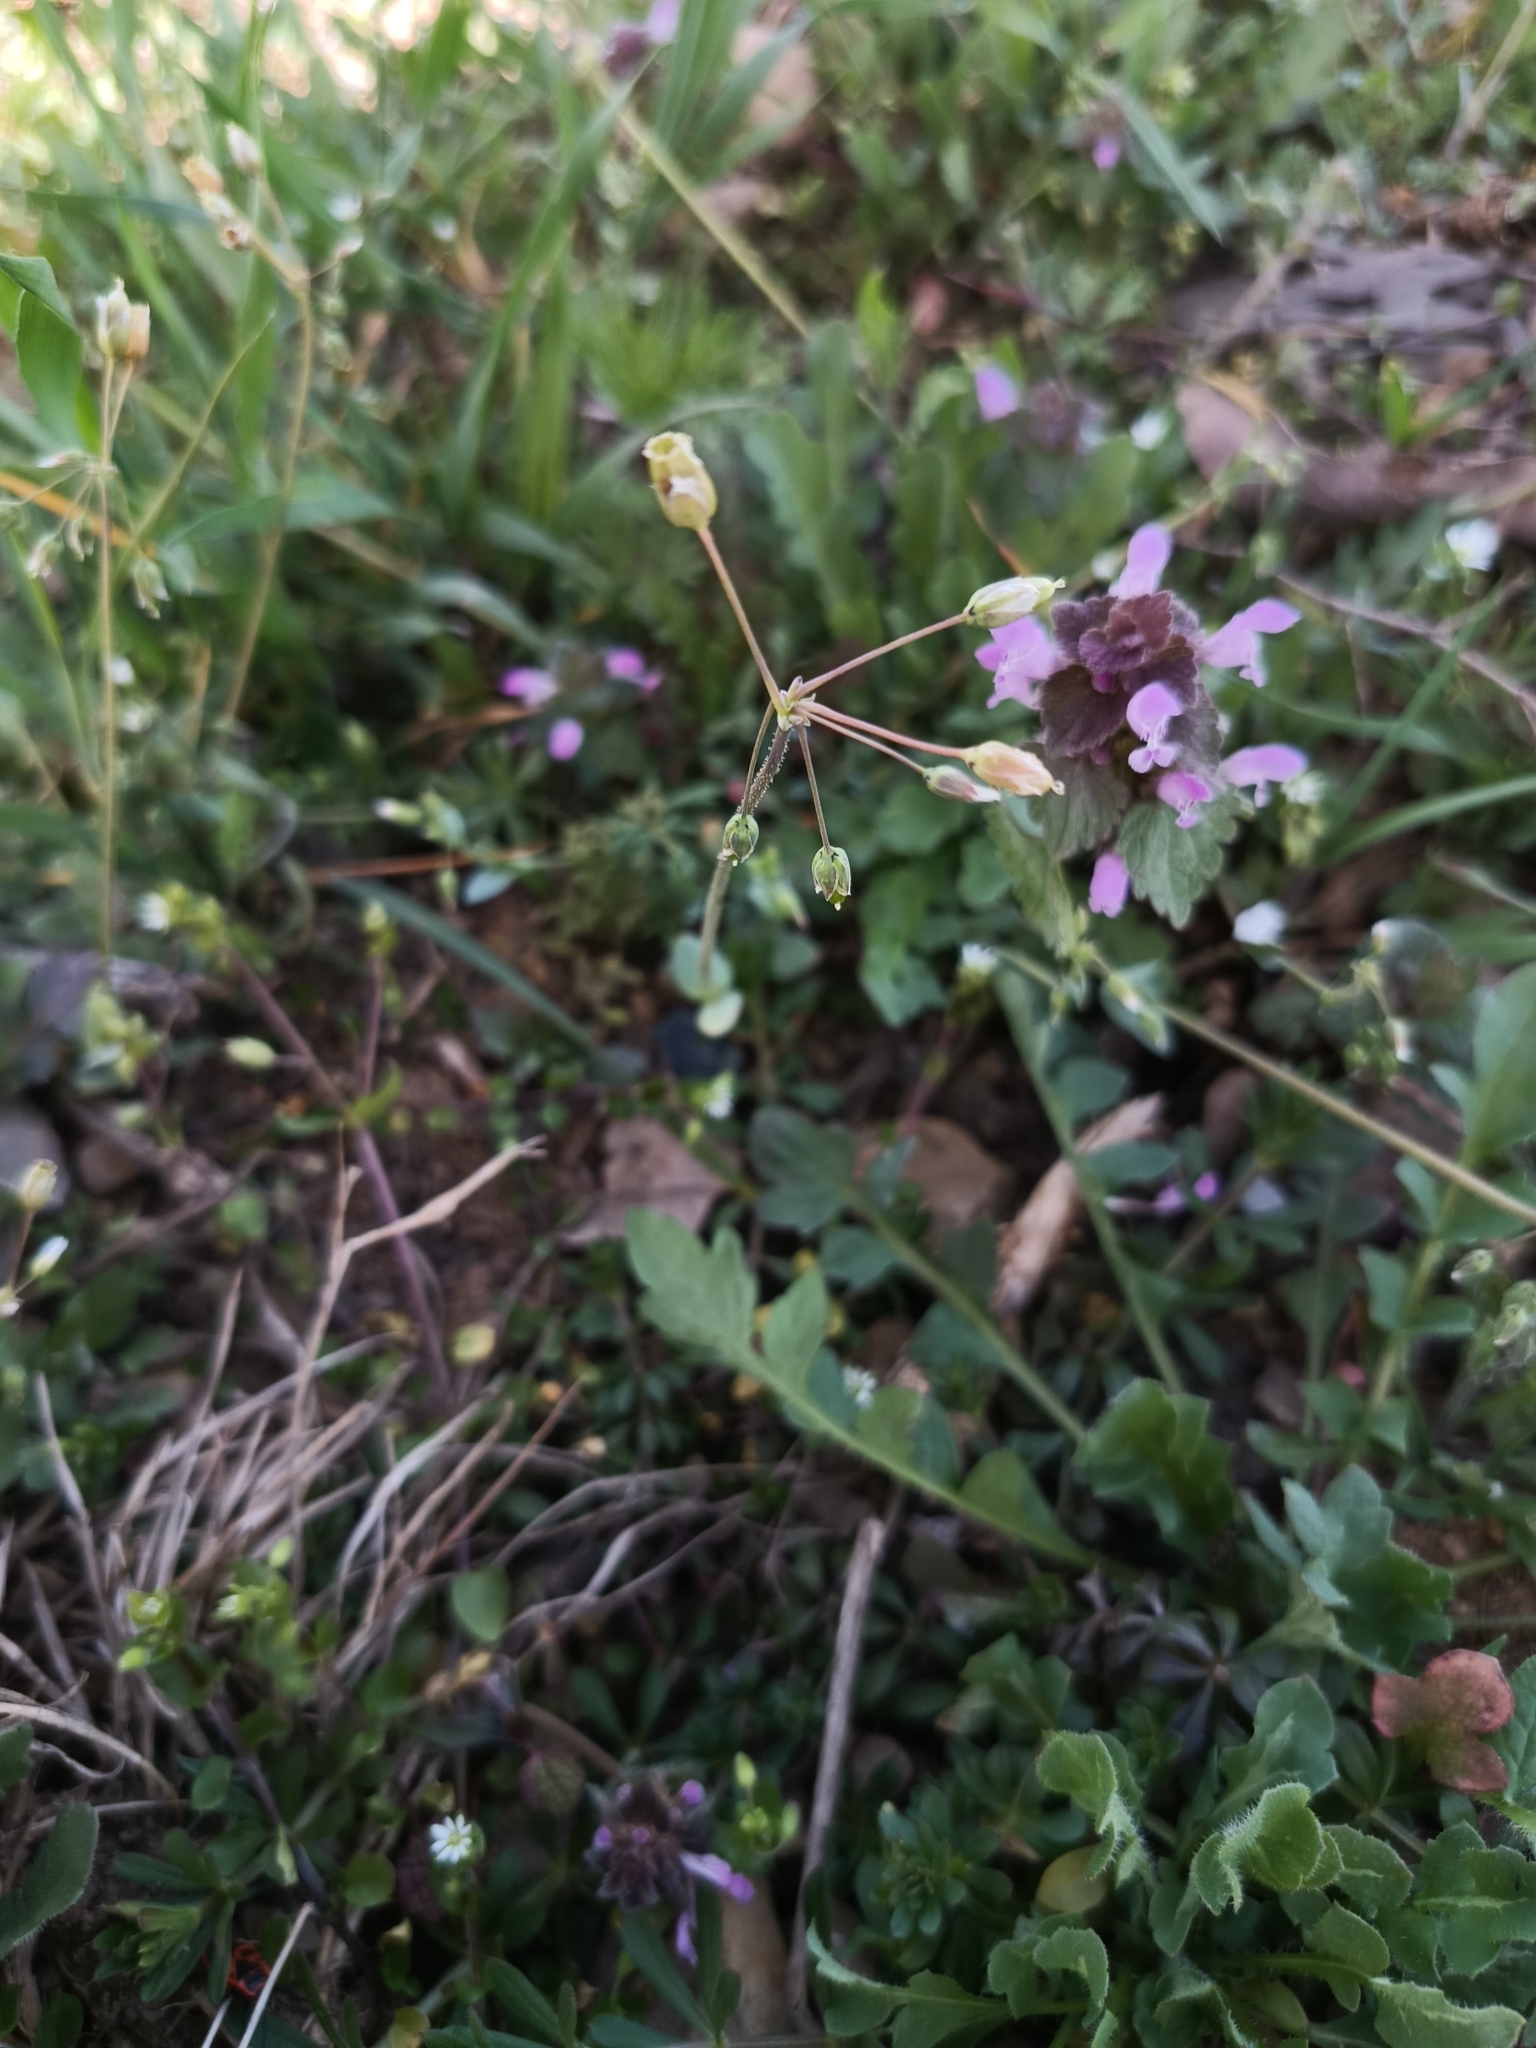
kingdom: Plantae
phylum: Tracheophyta
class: Magnoliopsida
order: Caryophyllales
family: Caryophyllaceae
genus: Holosteum
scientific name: Holosteum umbellatum
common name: Jagged chickweed
